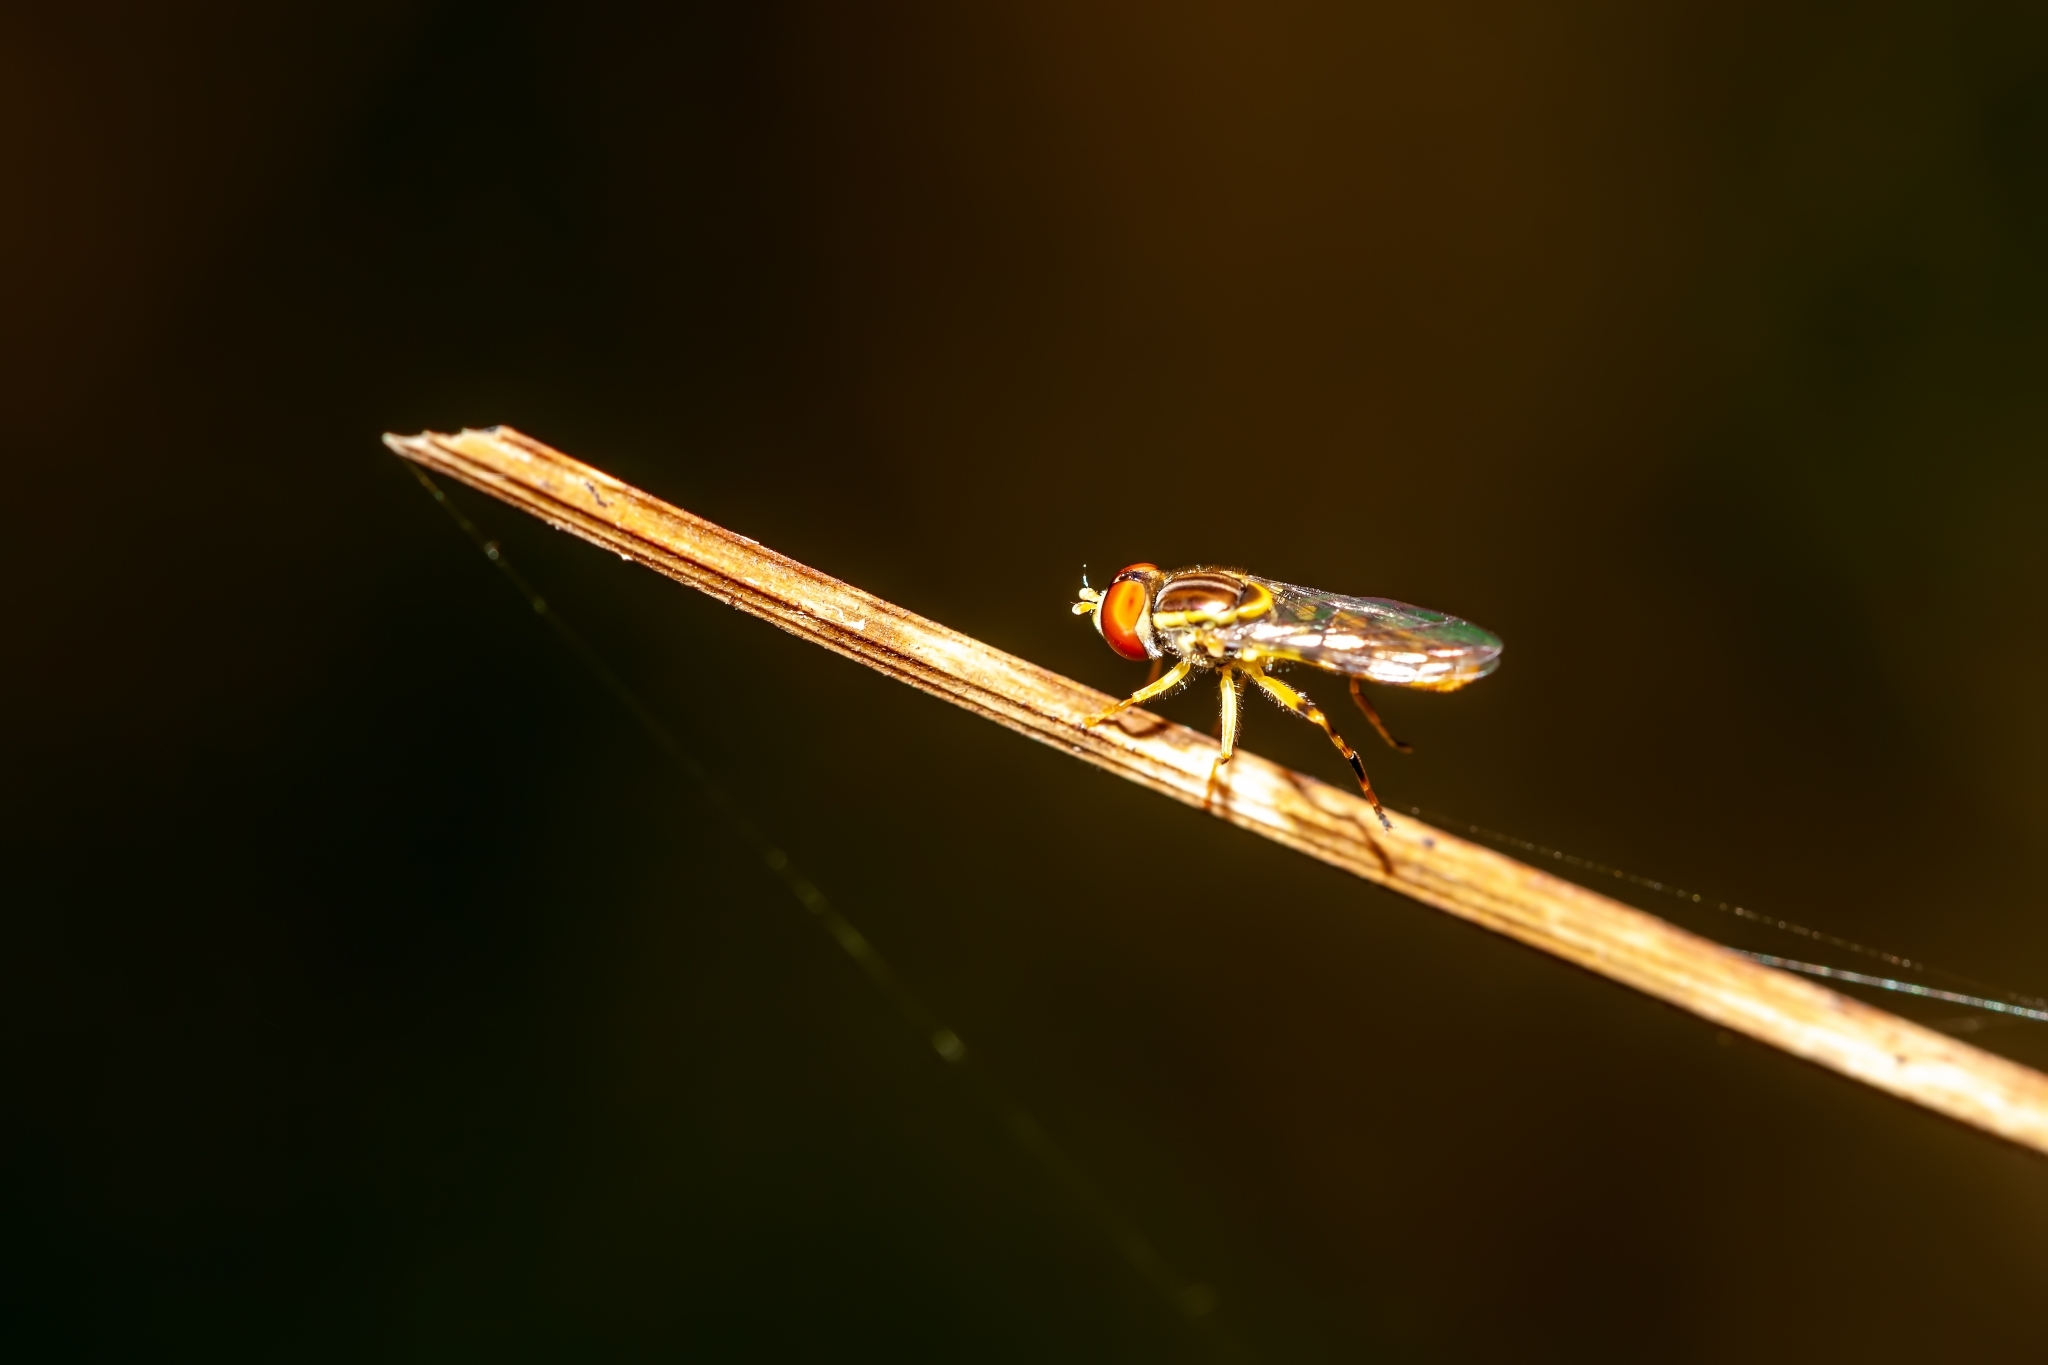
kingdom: Animalia
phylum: Arthropoda
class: Insecta
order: Diptera
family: Syrphidae
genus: Toxomerus
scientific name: Toxomerus floralis
